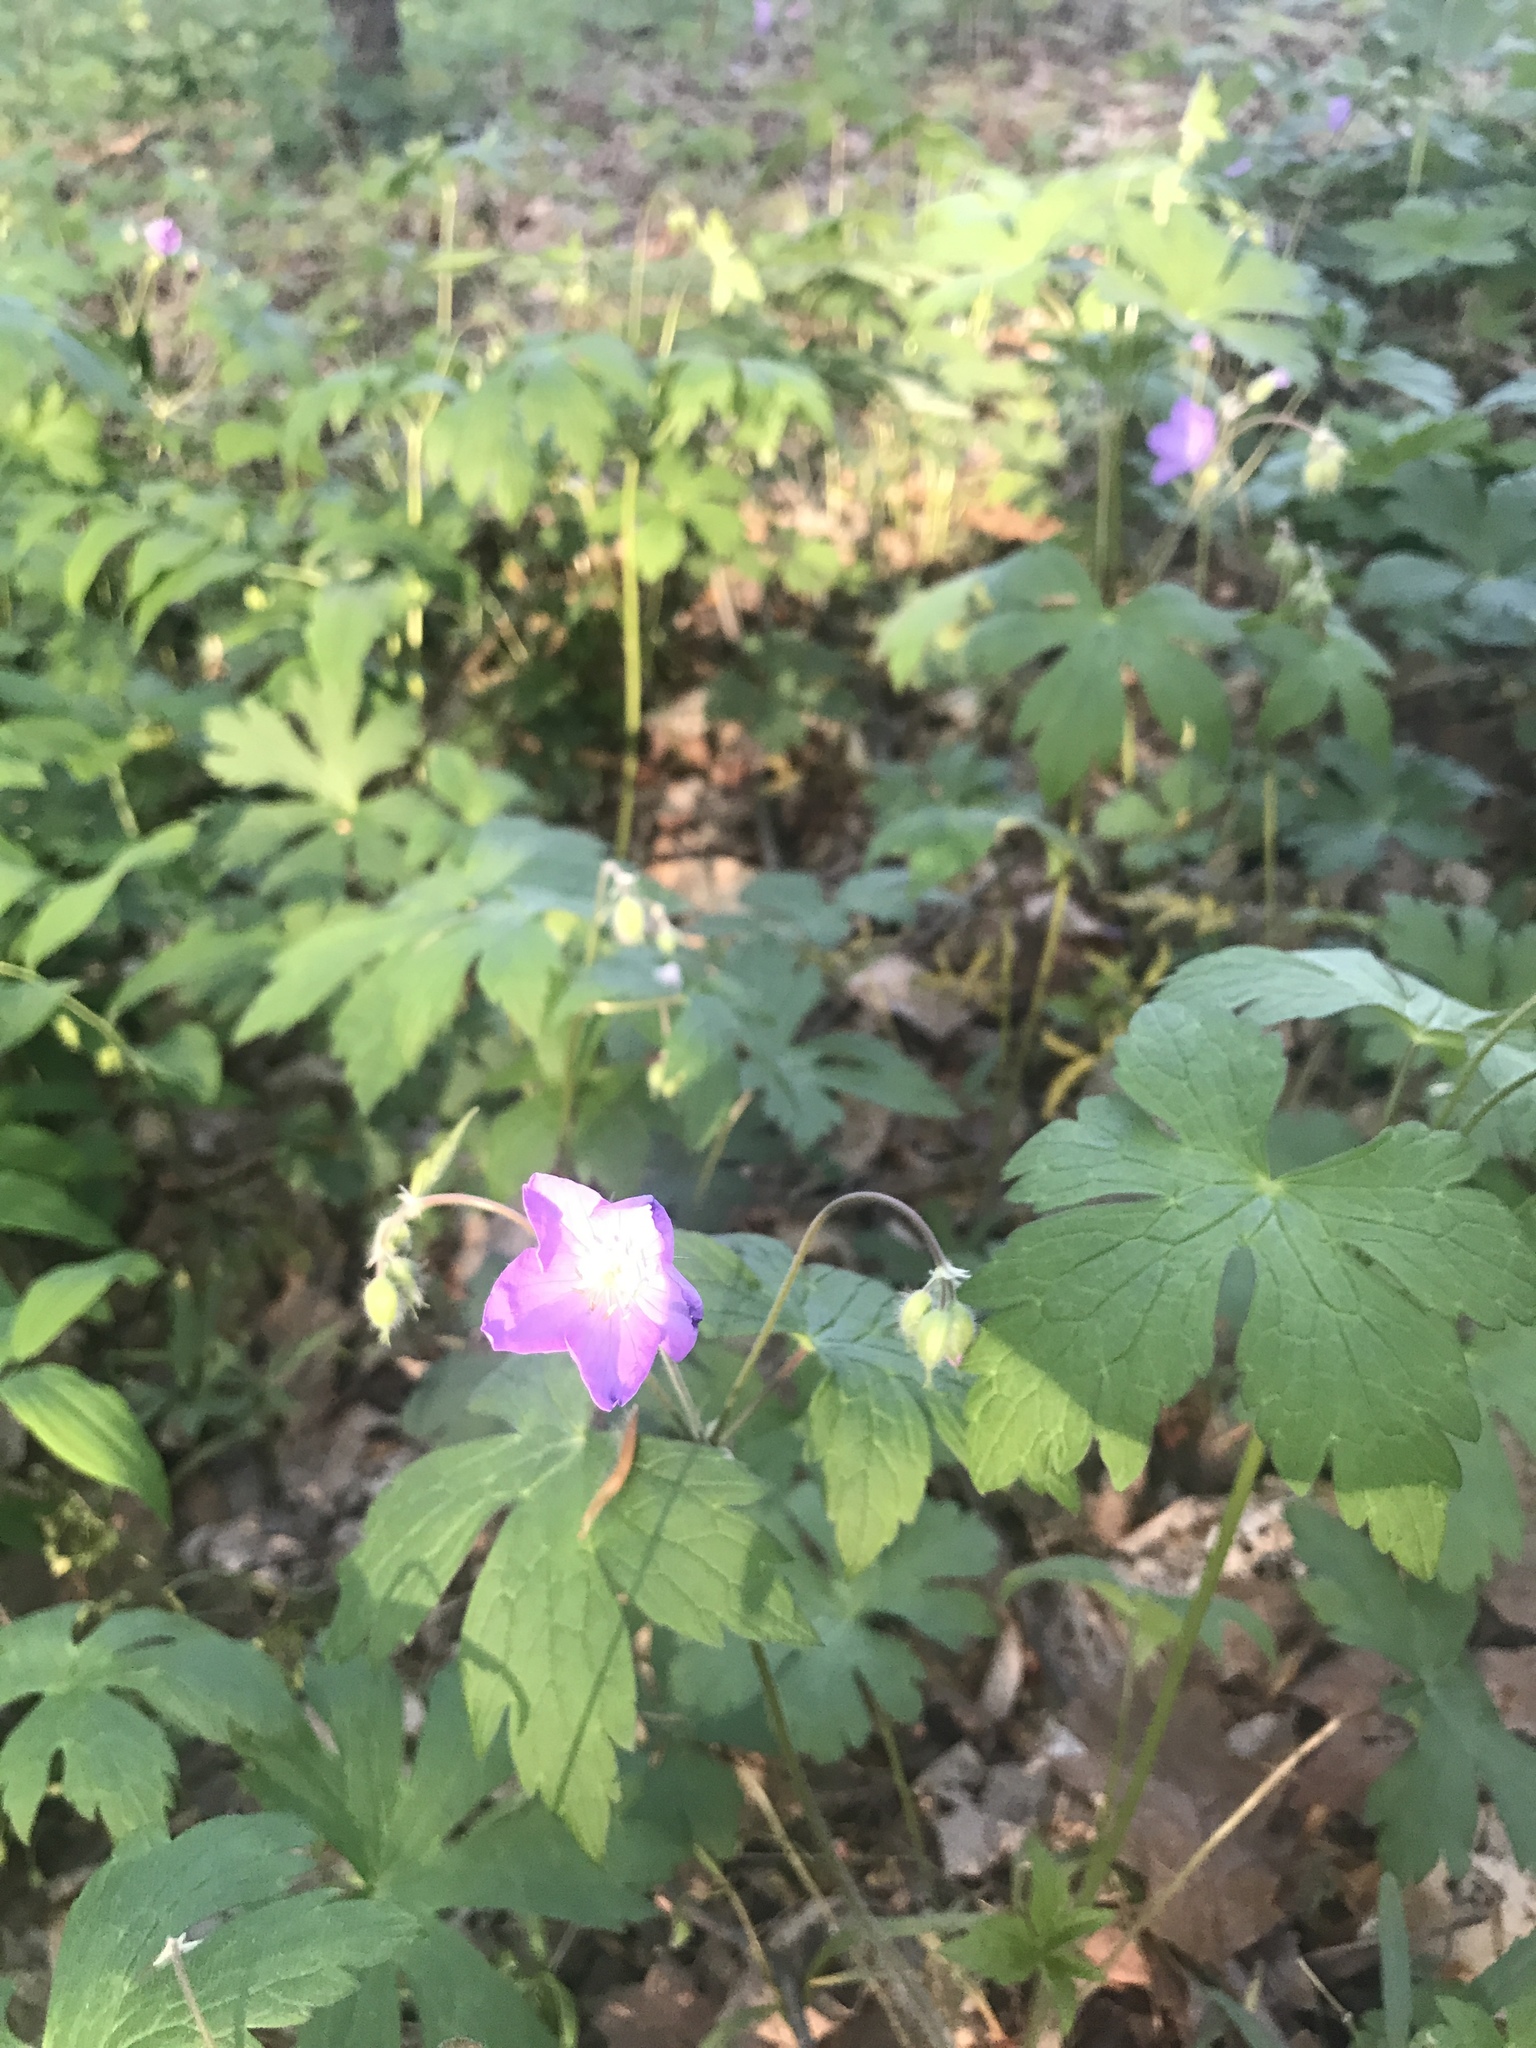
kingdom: Plantae
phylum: Tracheophyta
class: Magnoliopsida
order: Geraniales
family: Geraniaceae
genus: Geranium
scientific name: Geranium maculatum
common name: Spotted geranium
